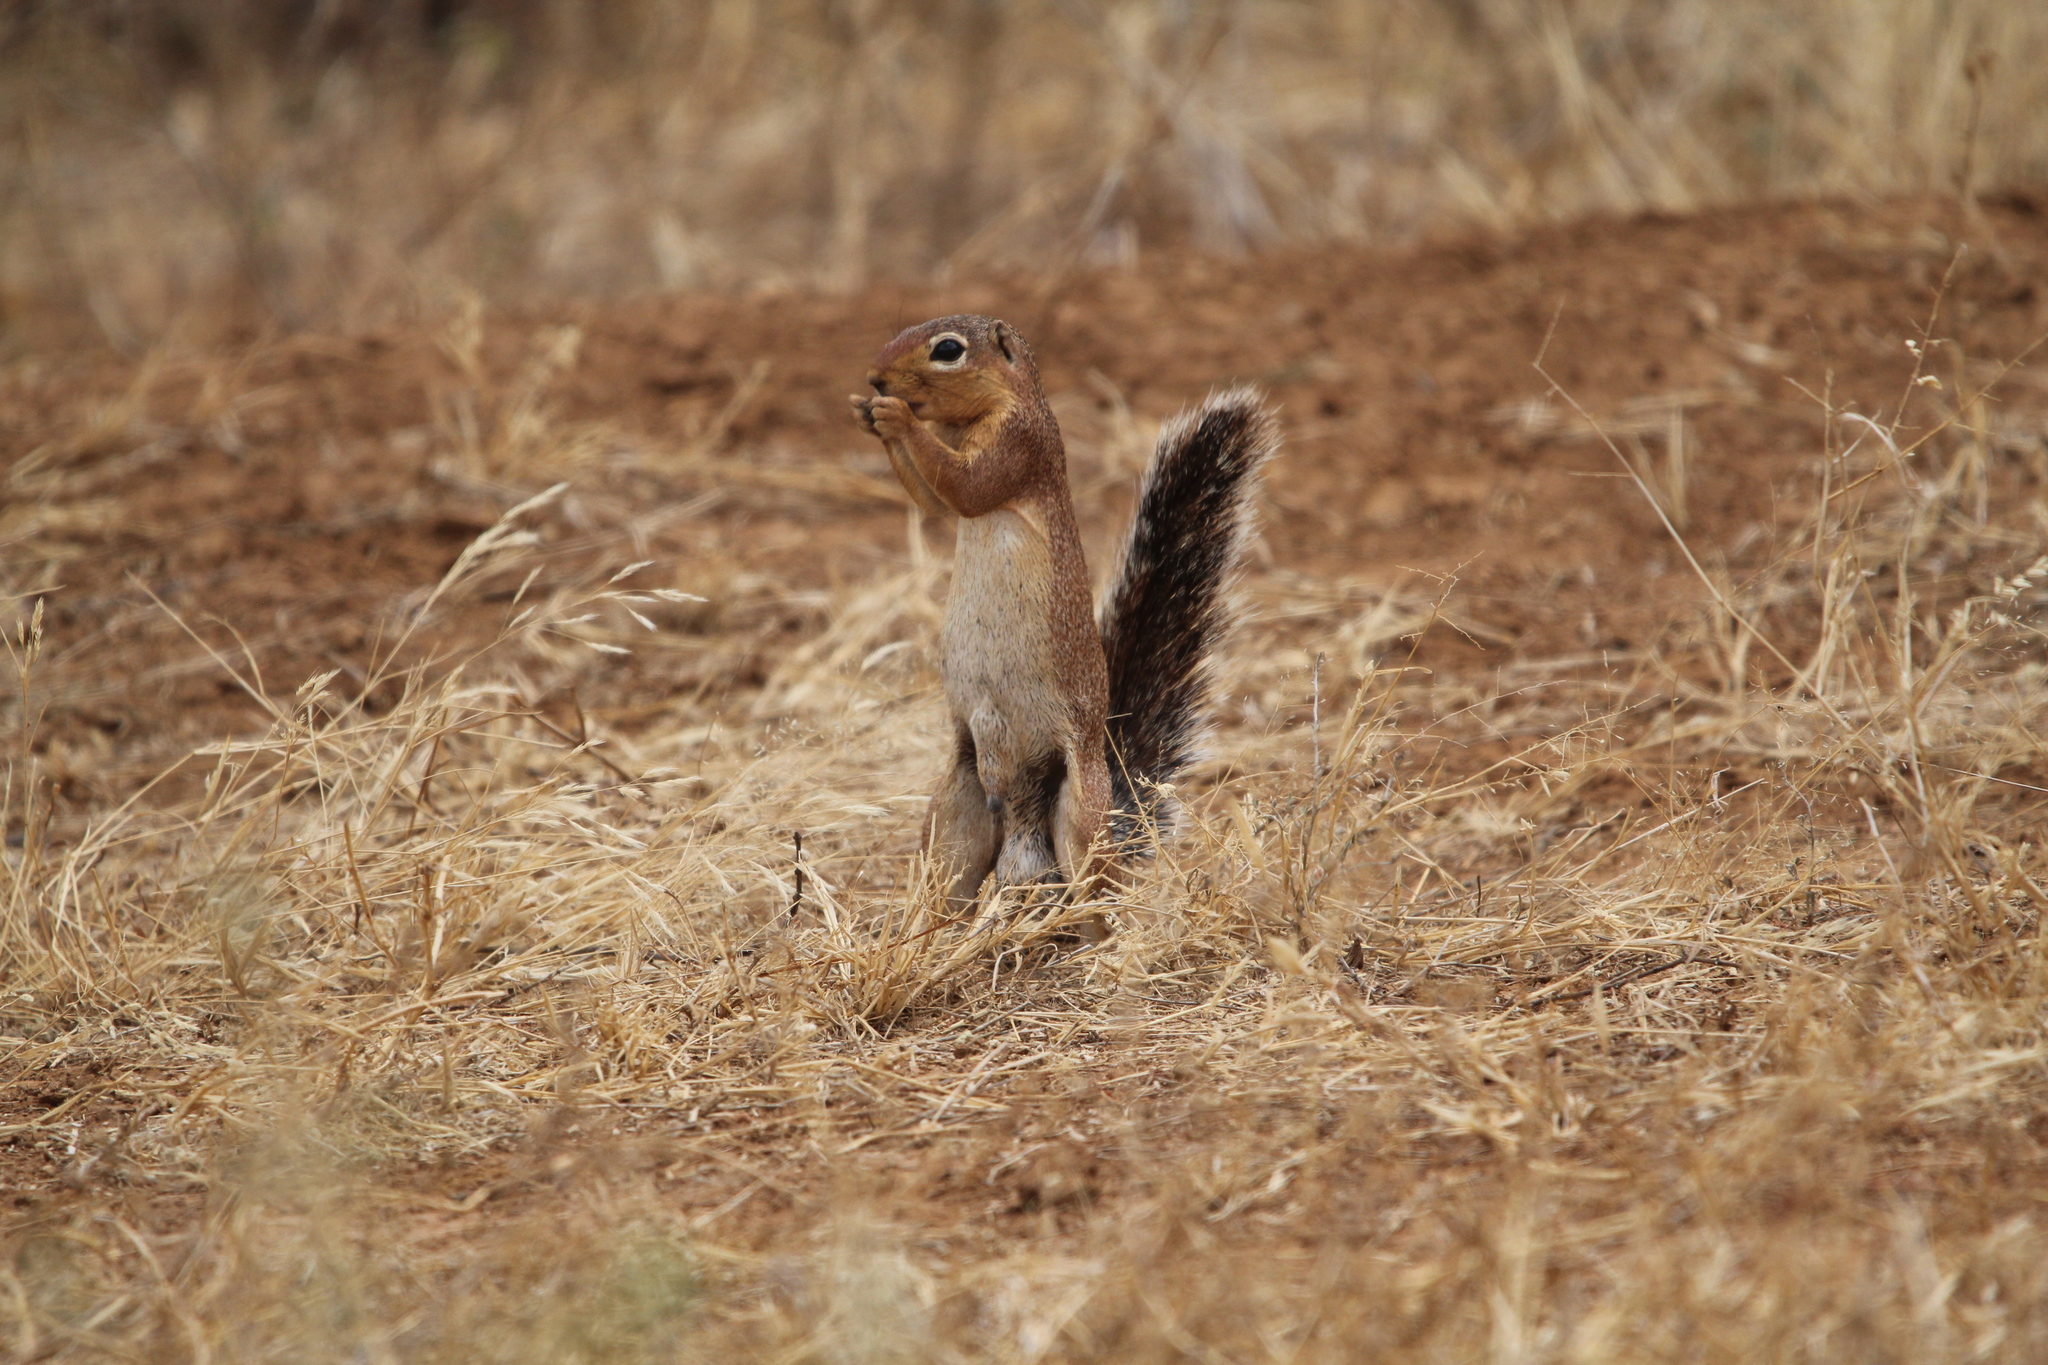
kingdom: Animalia
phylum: Chordata
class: Mammalia
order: Rodentia
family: Sciuridae
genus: Xerus
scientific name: Xerus rutilus
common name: Unstriped ground squirrel
